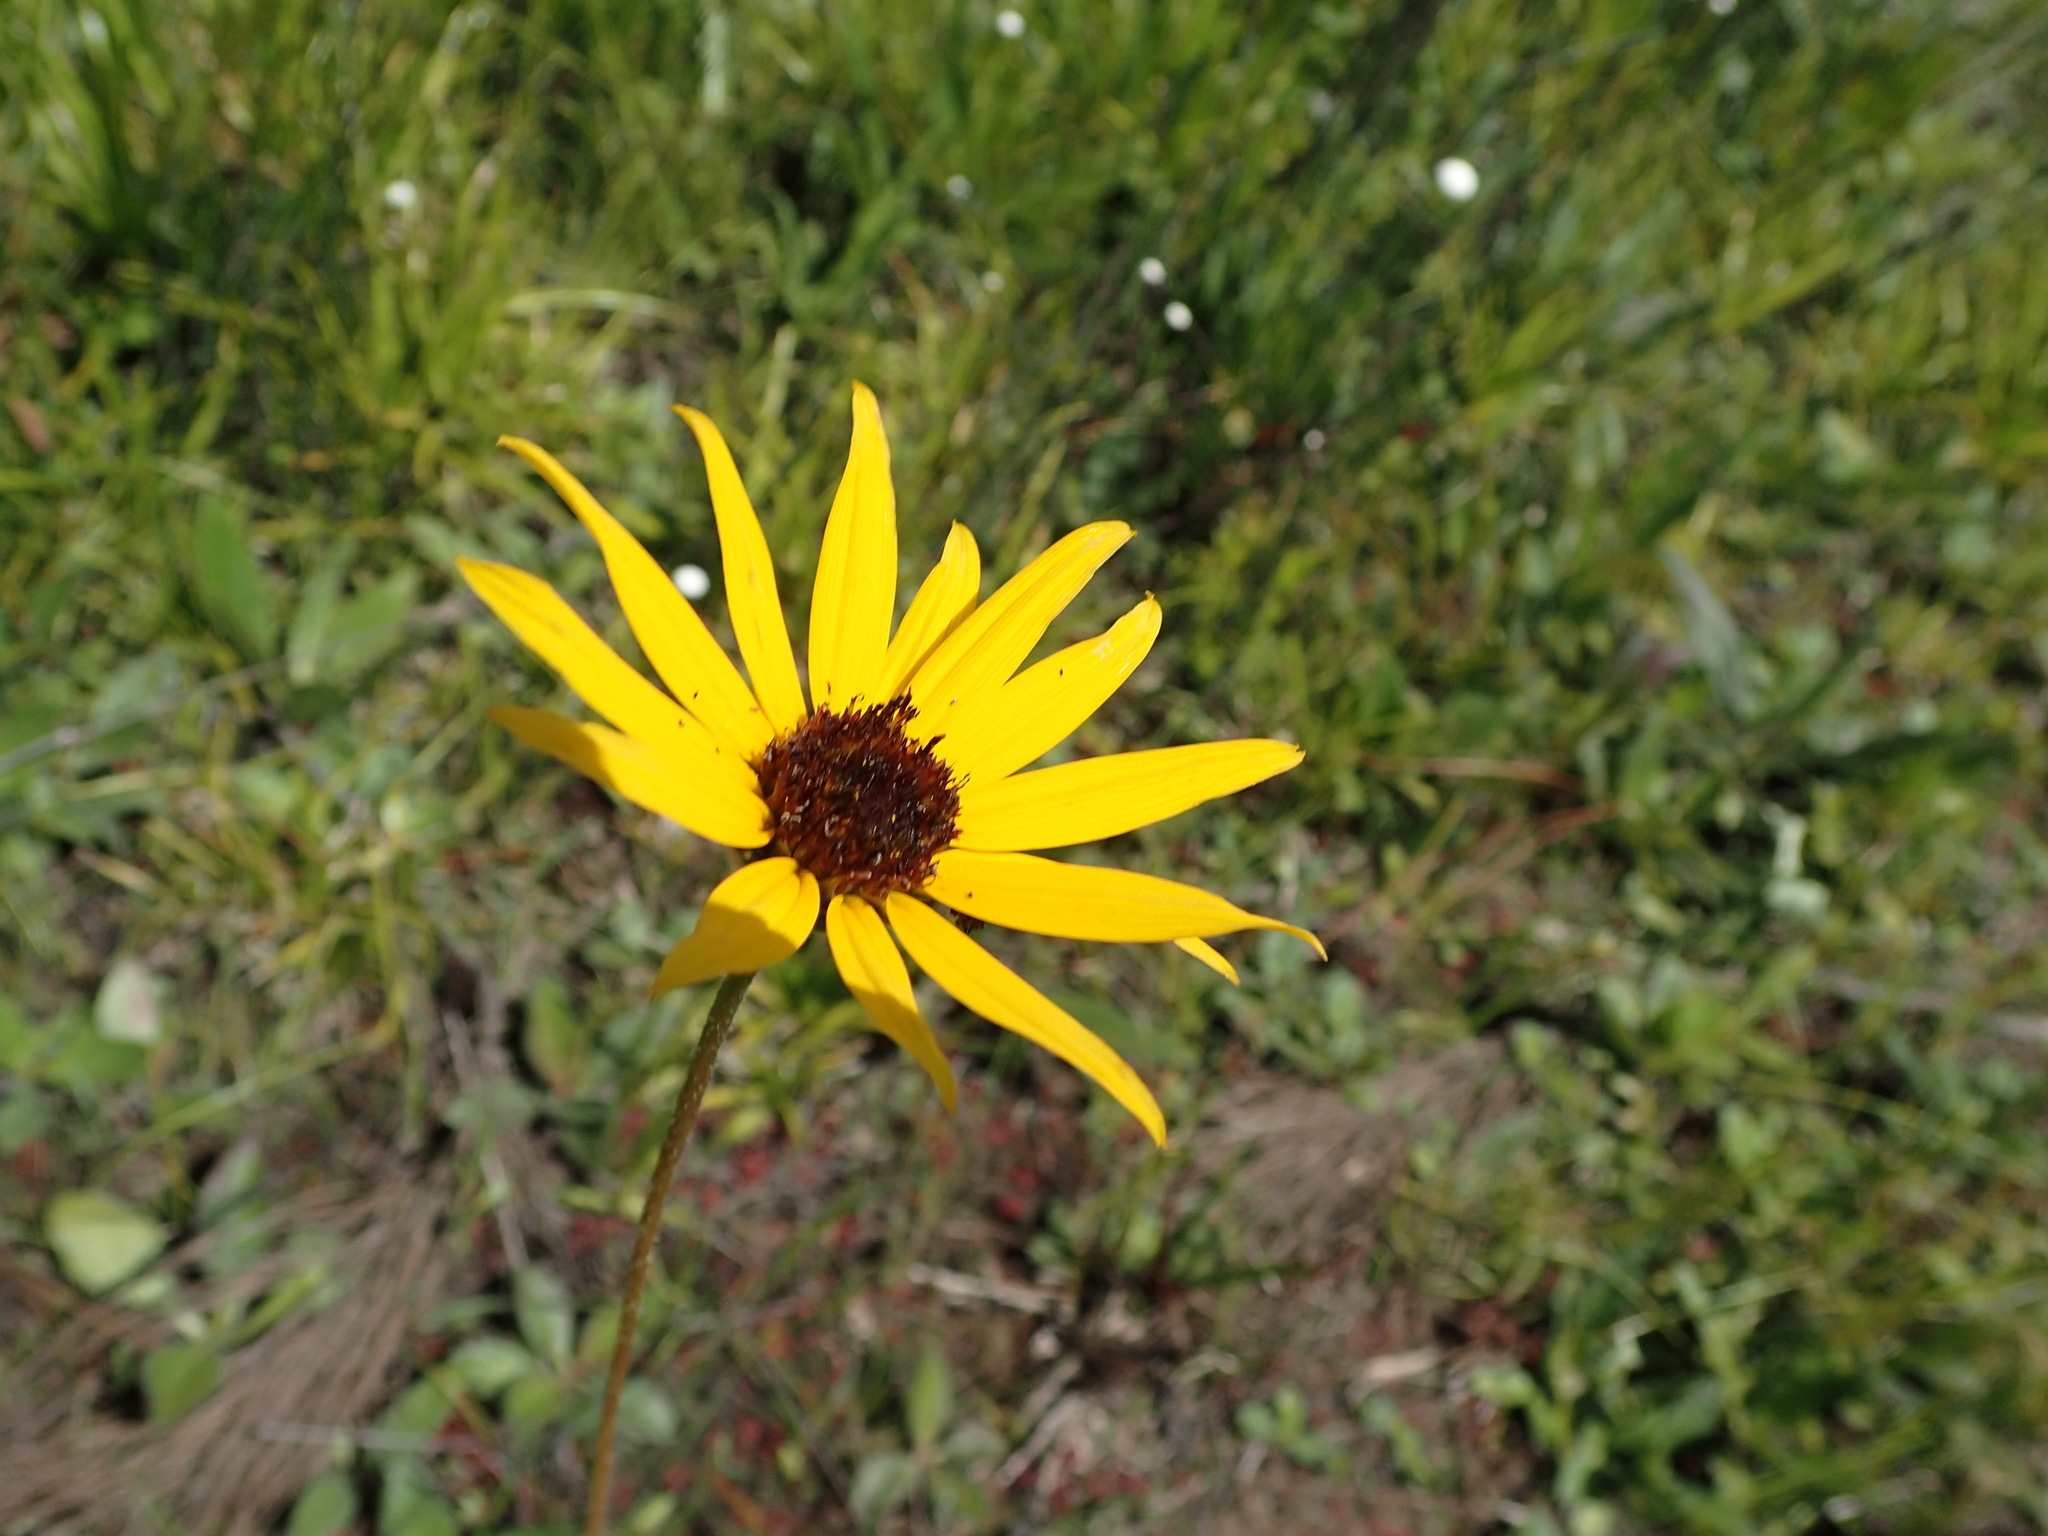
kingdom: Plantae
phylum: Tracheophyta
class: Magnoliopsida
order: Asterales
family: Asteraceae
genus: Helianthus
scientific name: Helianthus heterophyllus
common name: Wetland sunflower
